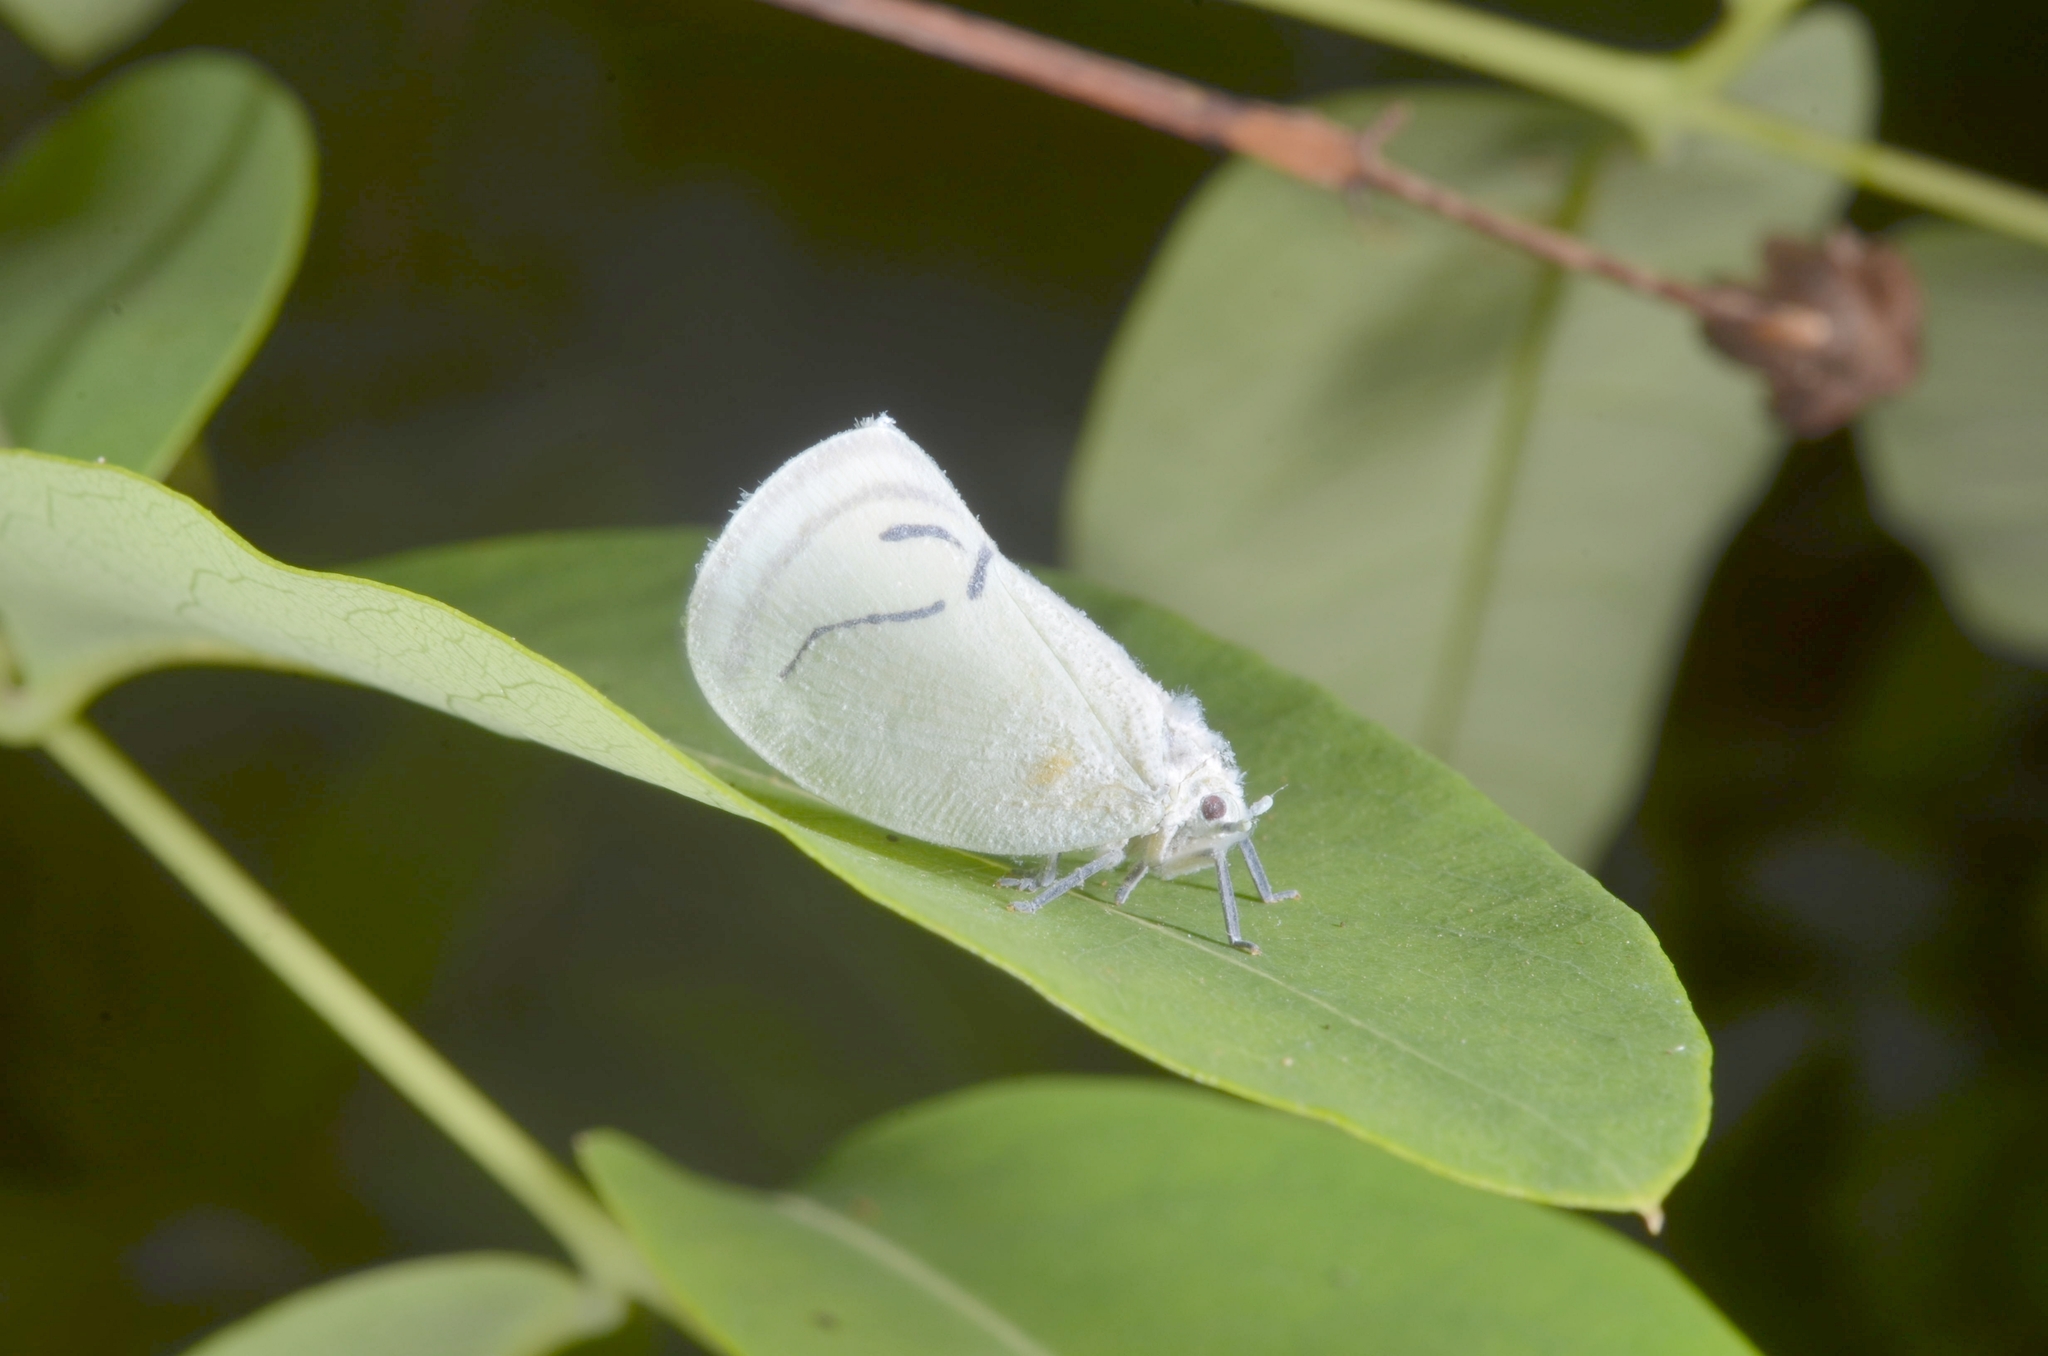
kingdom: Animalia
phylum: Arthropoda
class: Insecta
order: Hemiptera
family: Flatidae
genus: Cerynia
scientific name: Cerynia albata
